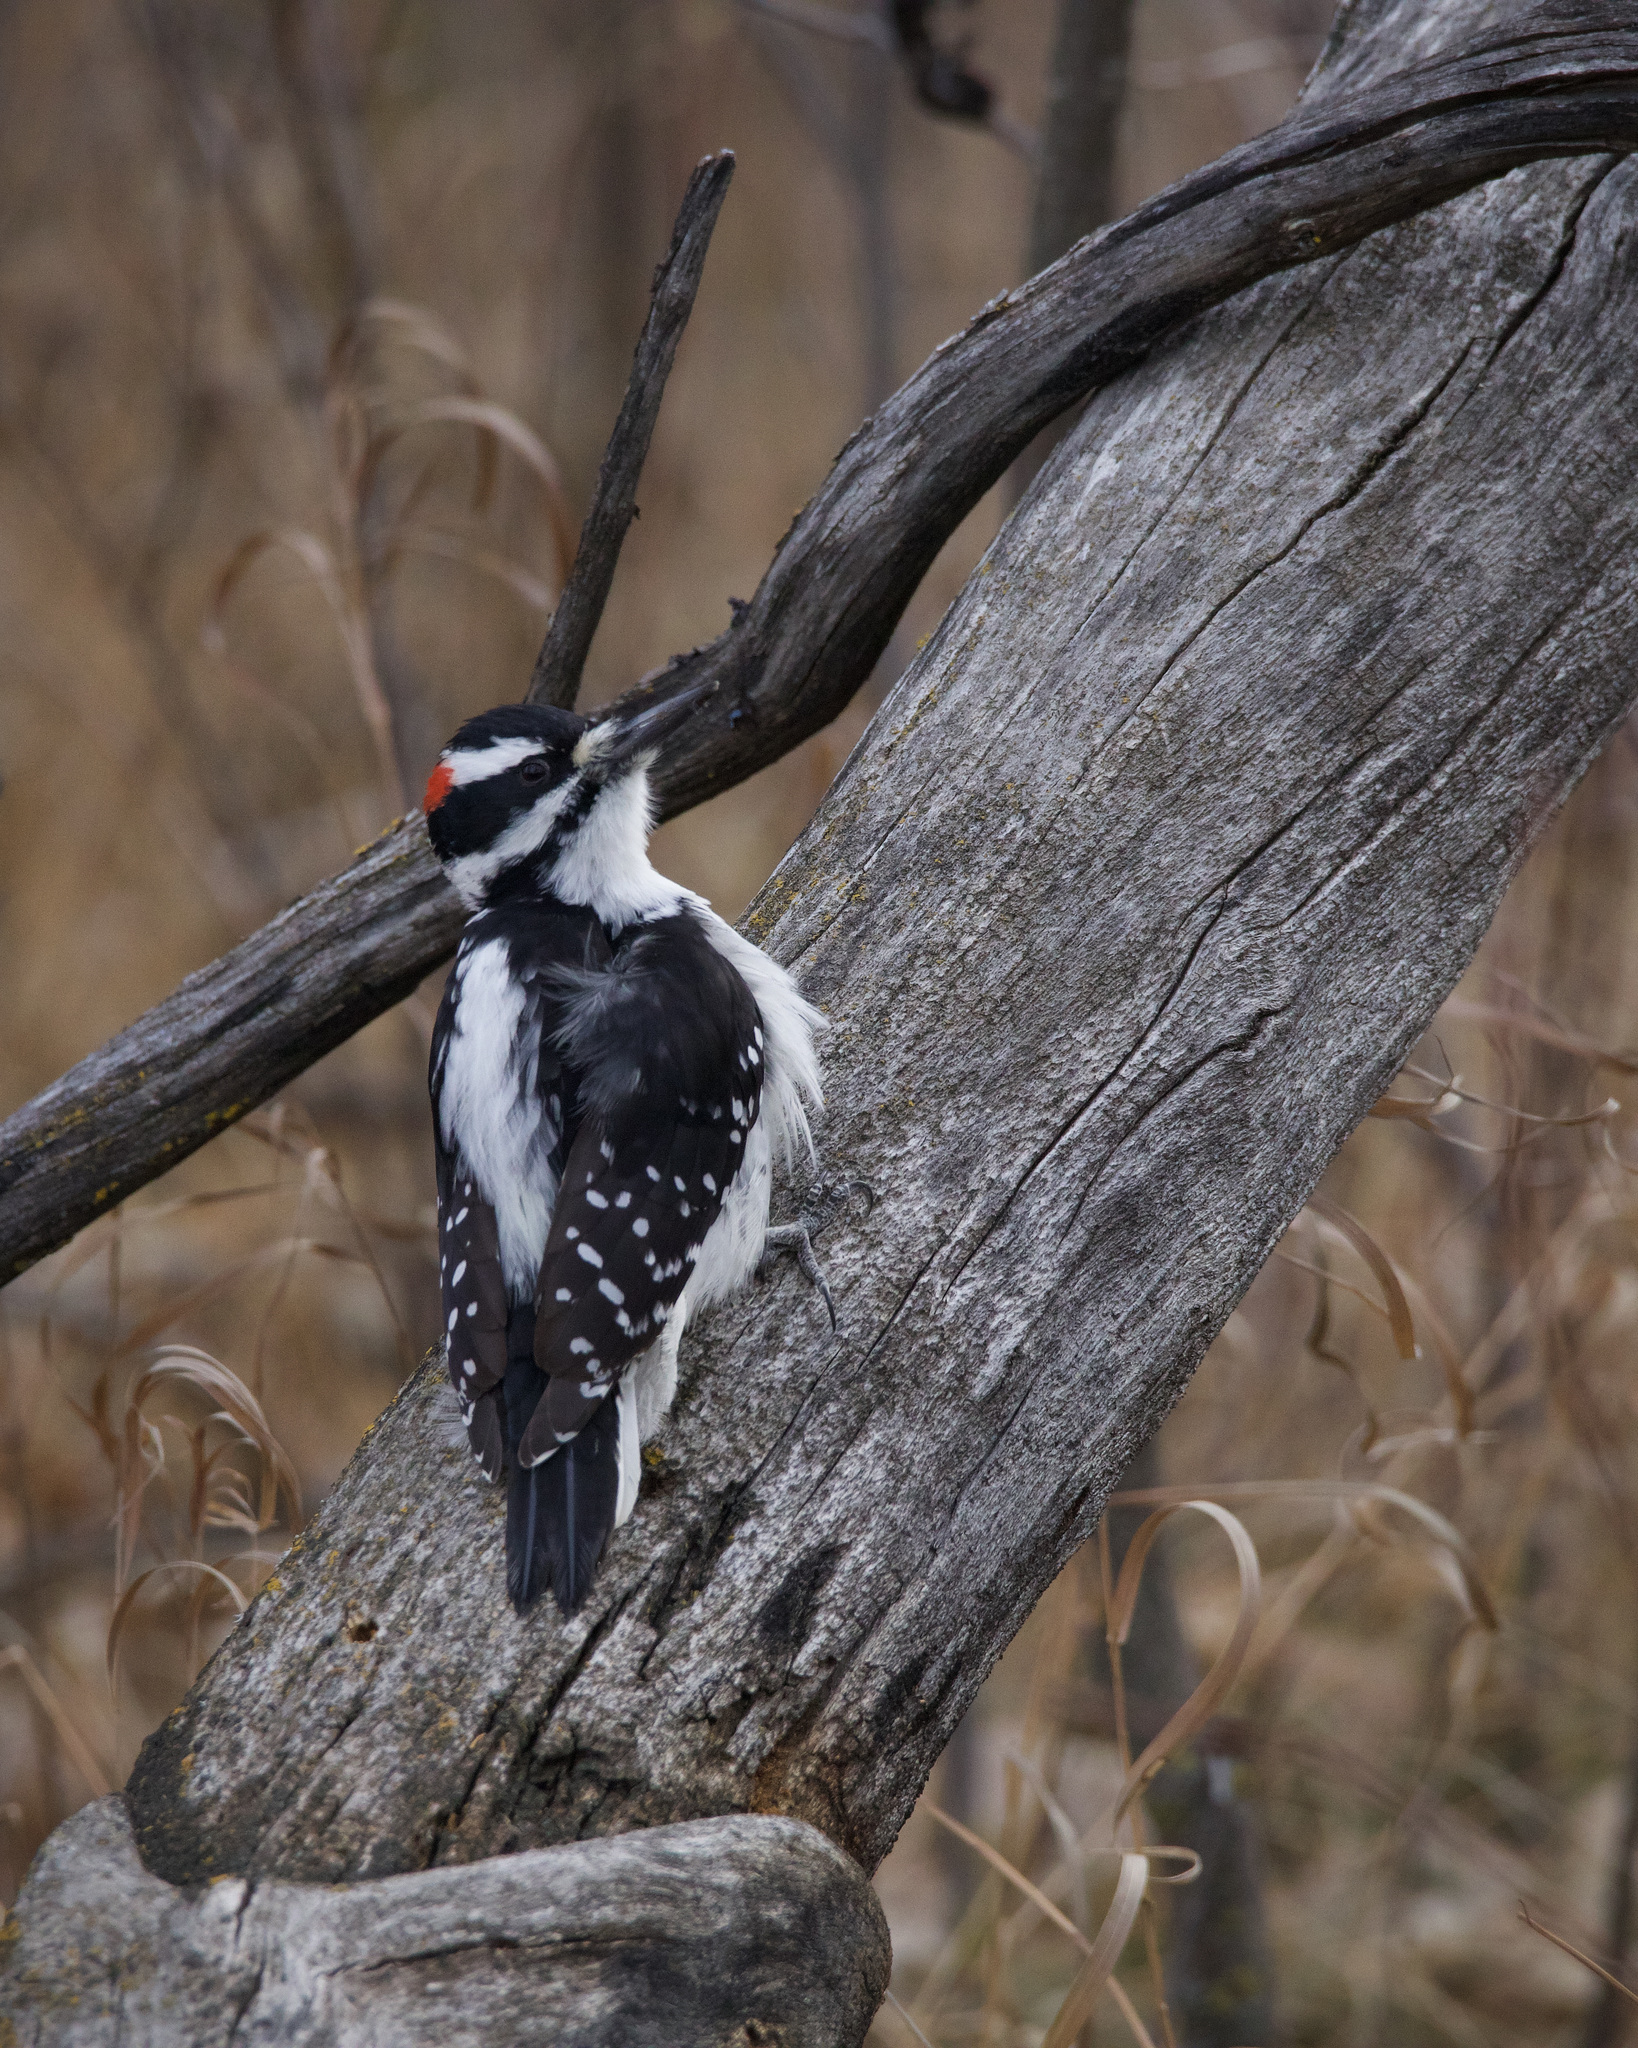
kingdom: Animalia
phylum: Chordata
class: Aves
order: Piciformes
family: Picidae
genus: Leuconotopicus
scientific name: Leuconotopicus villosus
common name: Hairy woodpecker
